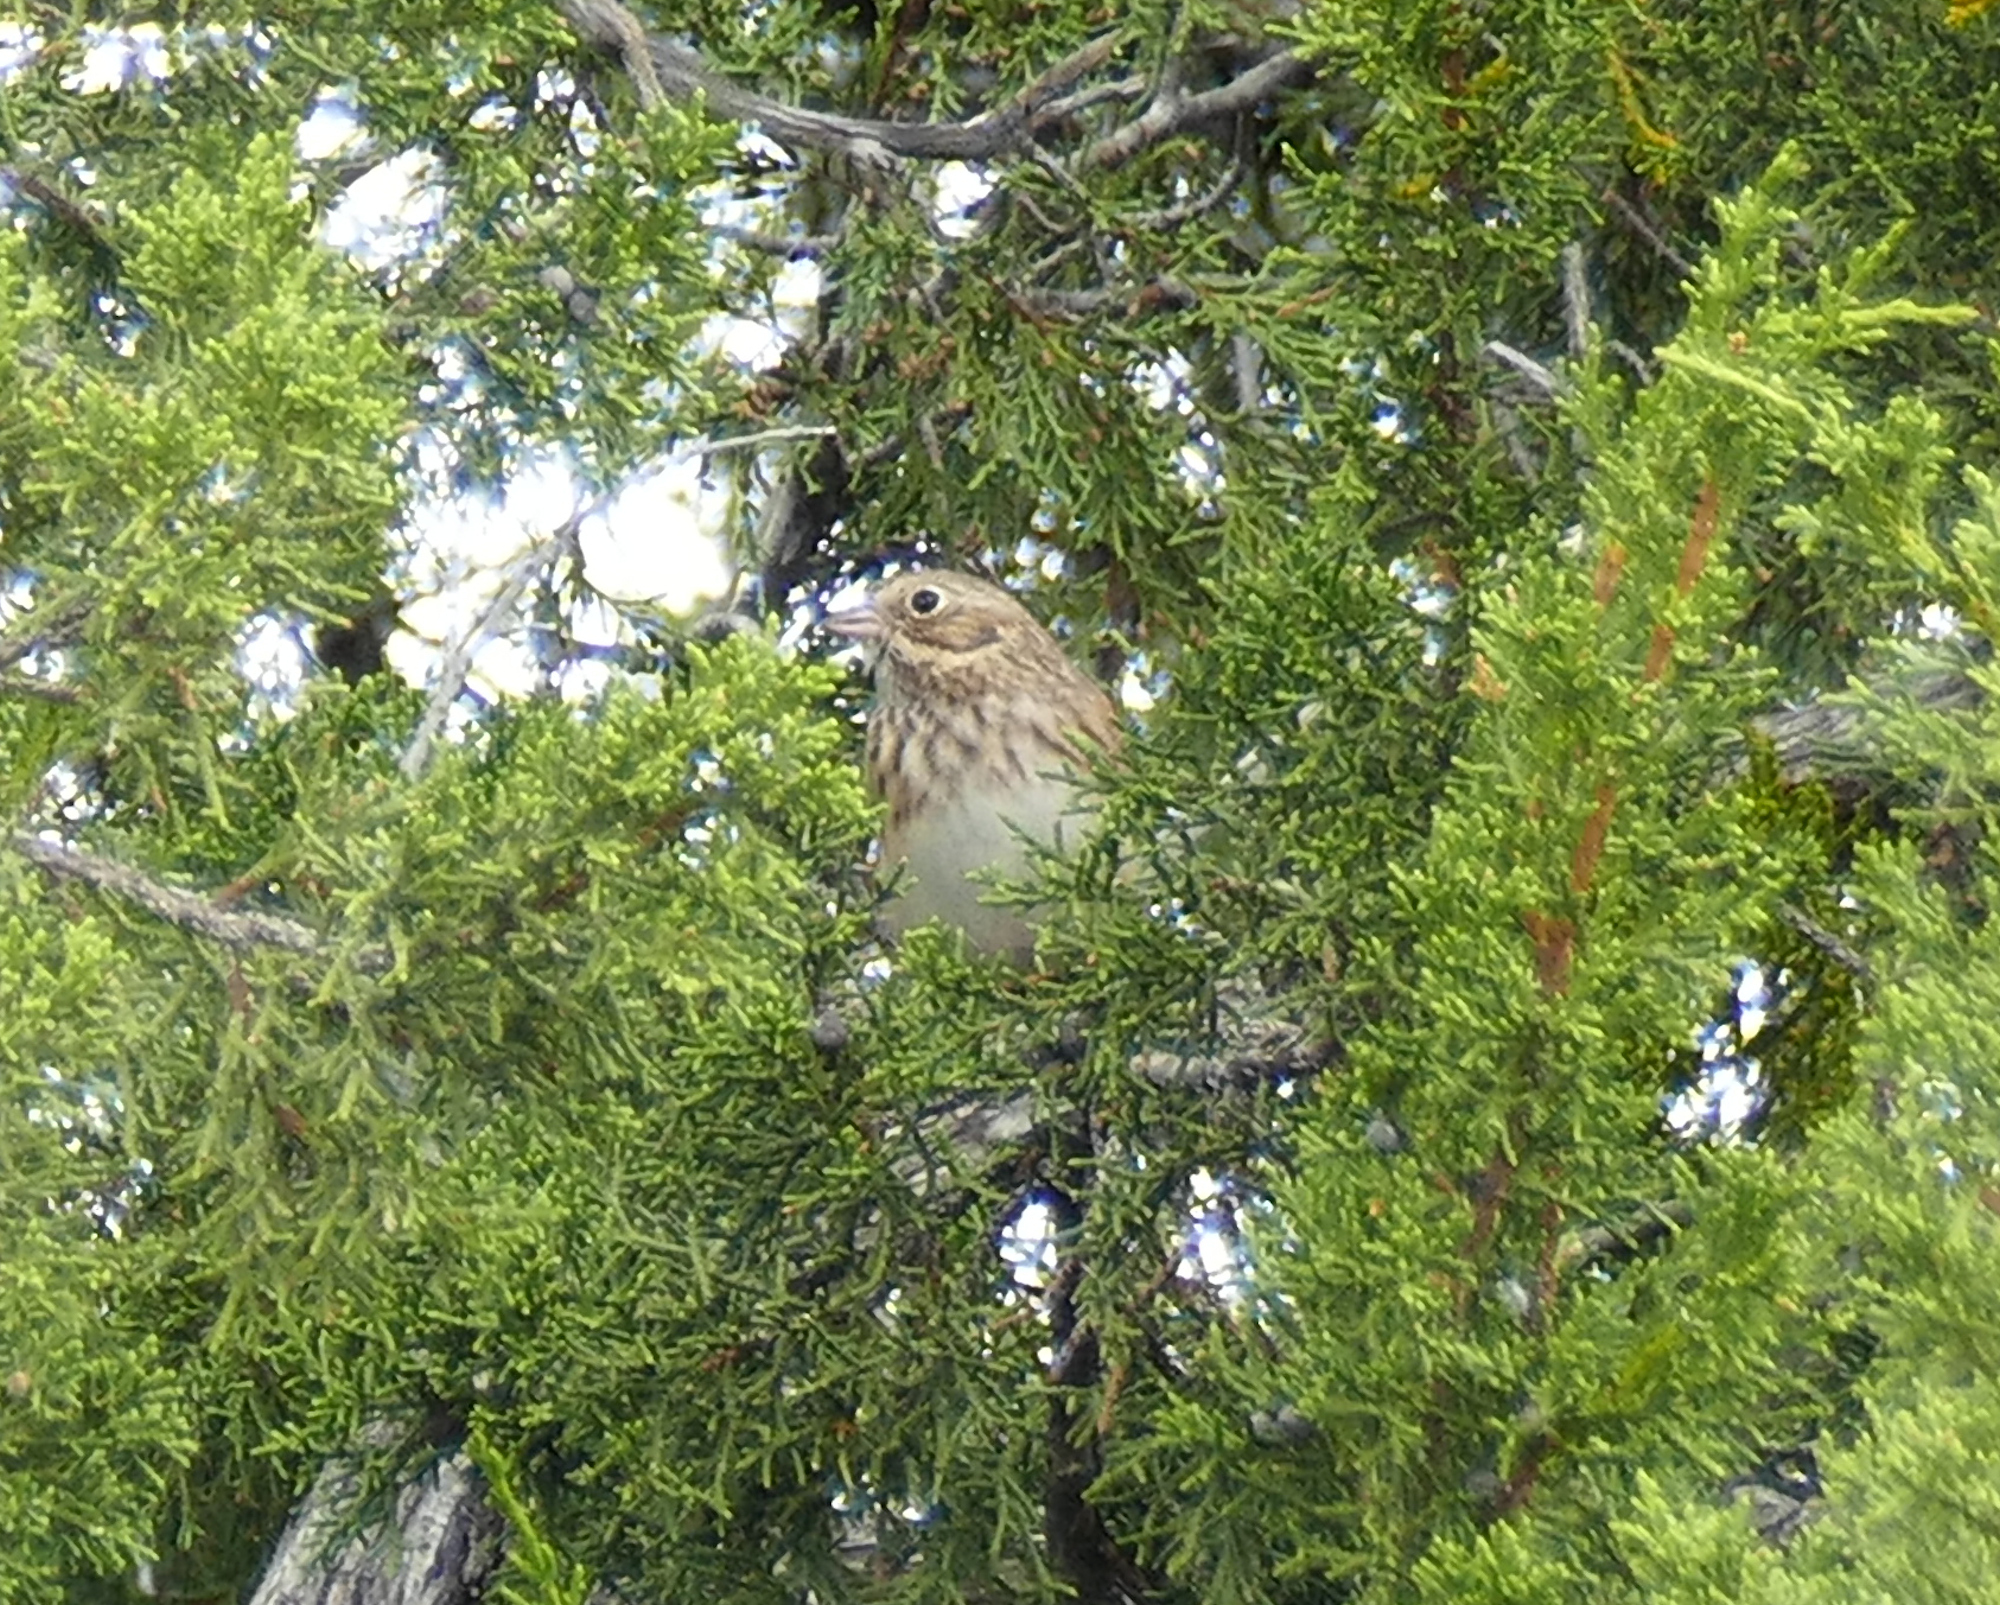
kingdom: Animalia
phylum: Chordata
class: Aves
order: Passeriformes
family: Passerellidae
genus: Pooecetes
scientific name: Pooecetes gramineus
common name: Vesper sparrow
